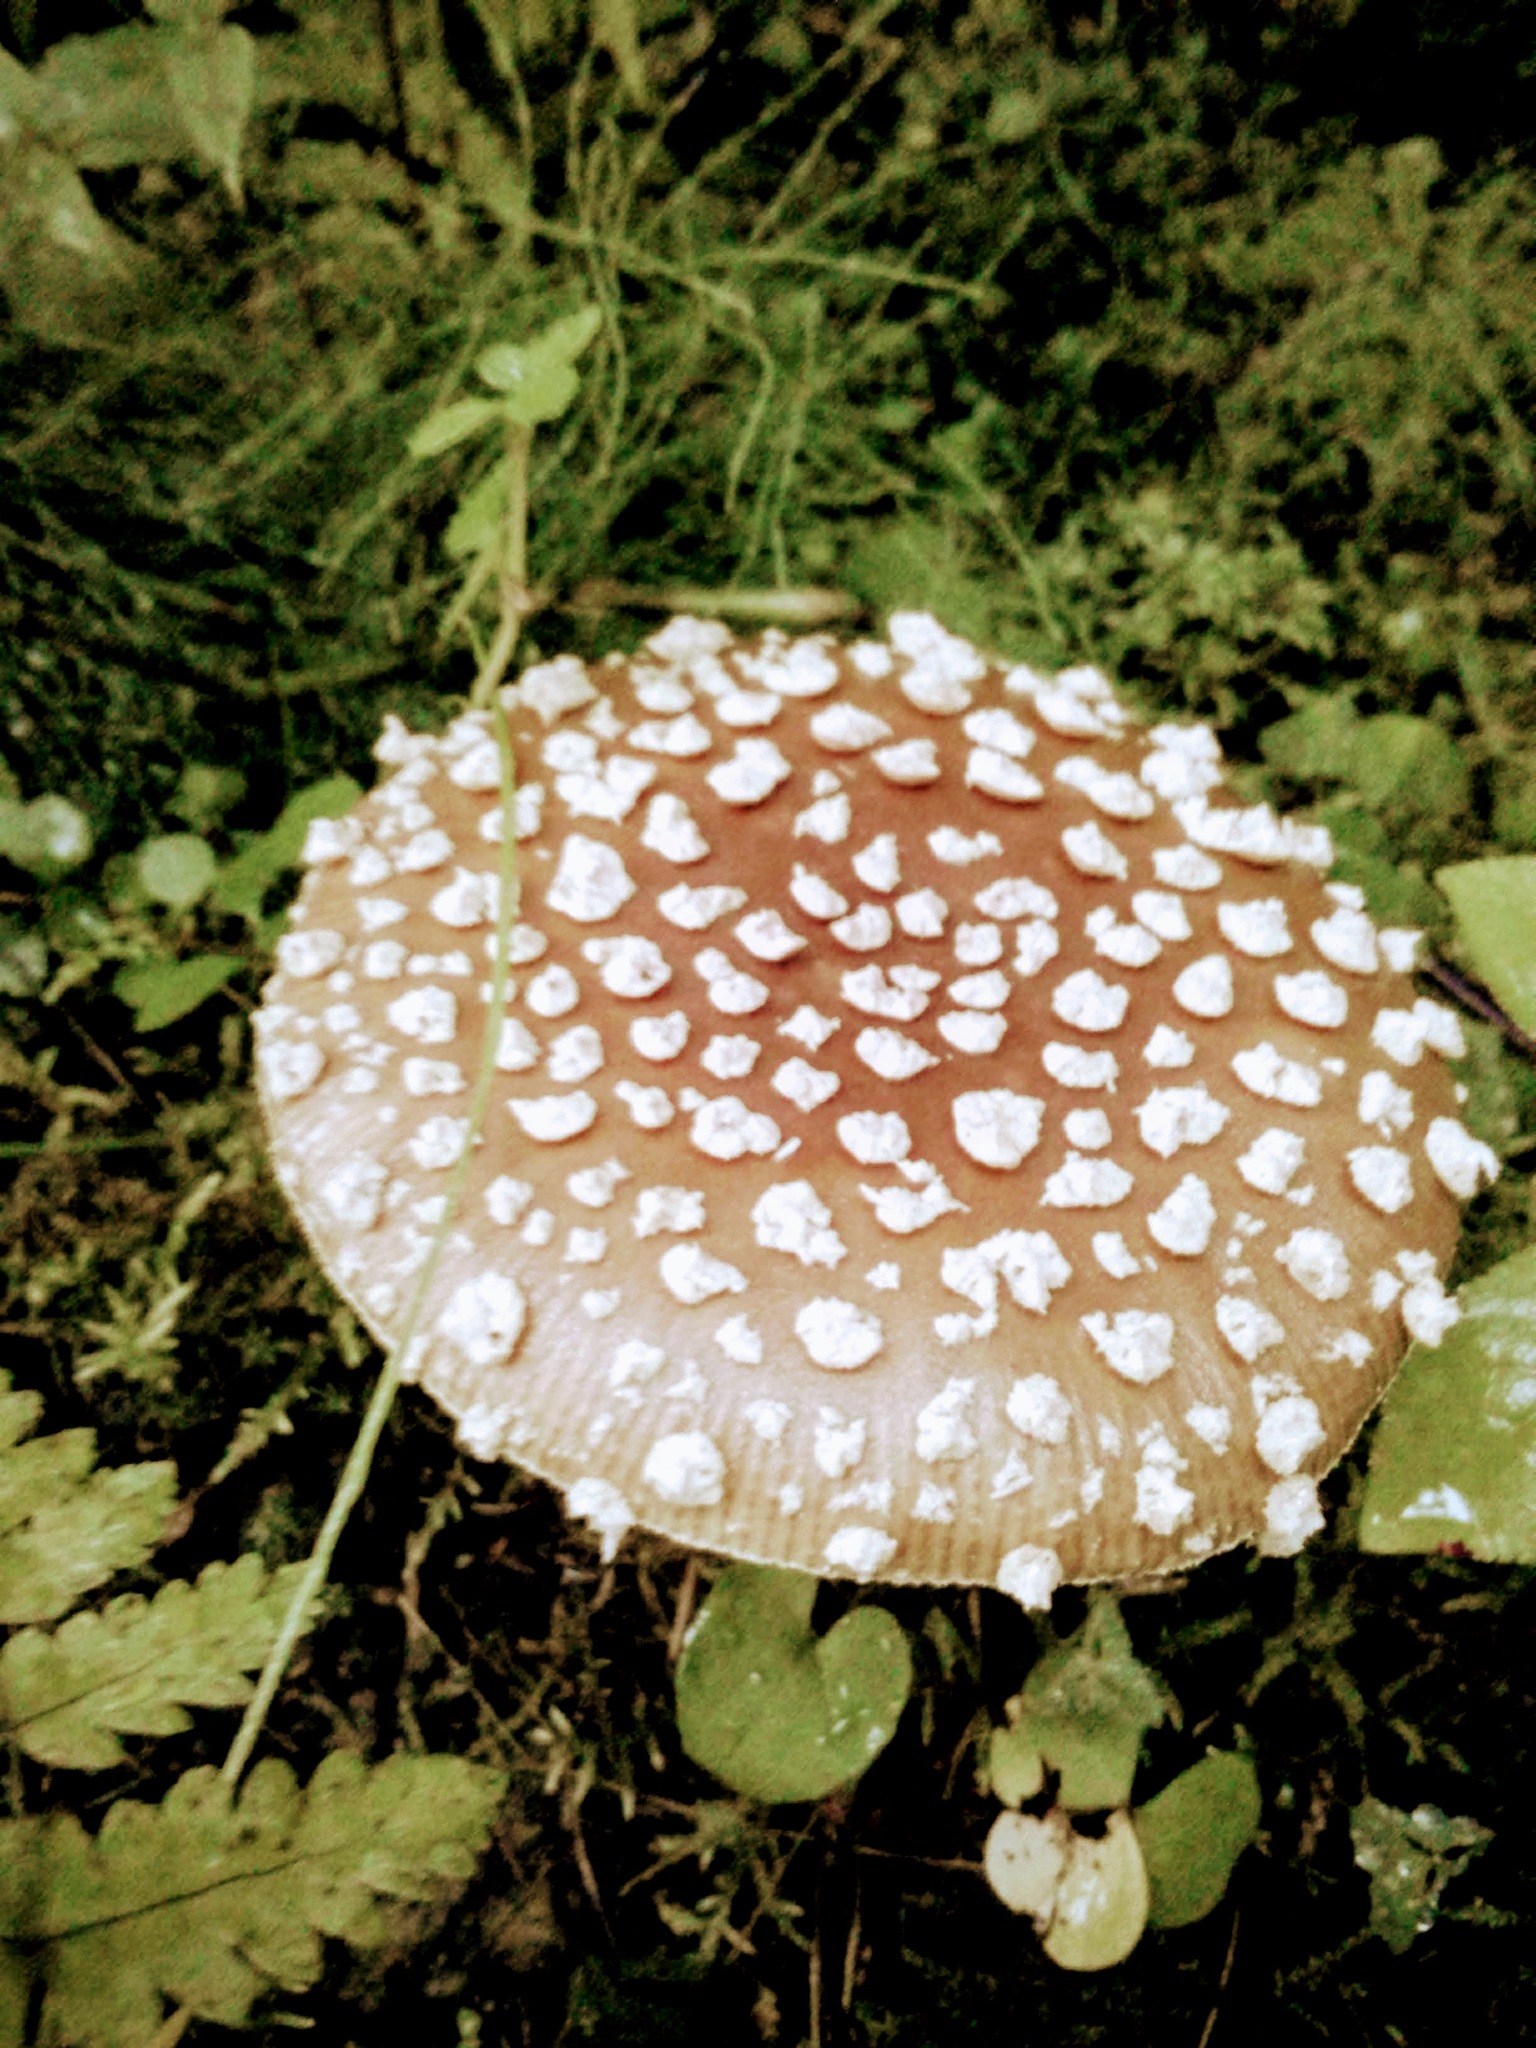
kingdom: Fungi
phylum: Basidiomycota
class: Agaricomycetes
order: Agaricales
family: Amanitaceae
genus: Amanita
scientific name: Amanita pantherina
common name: Panthercap
